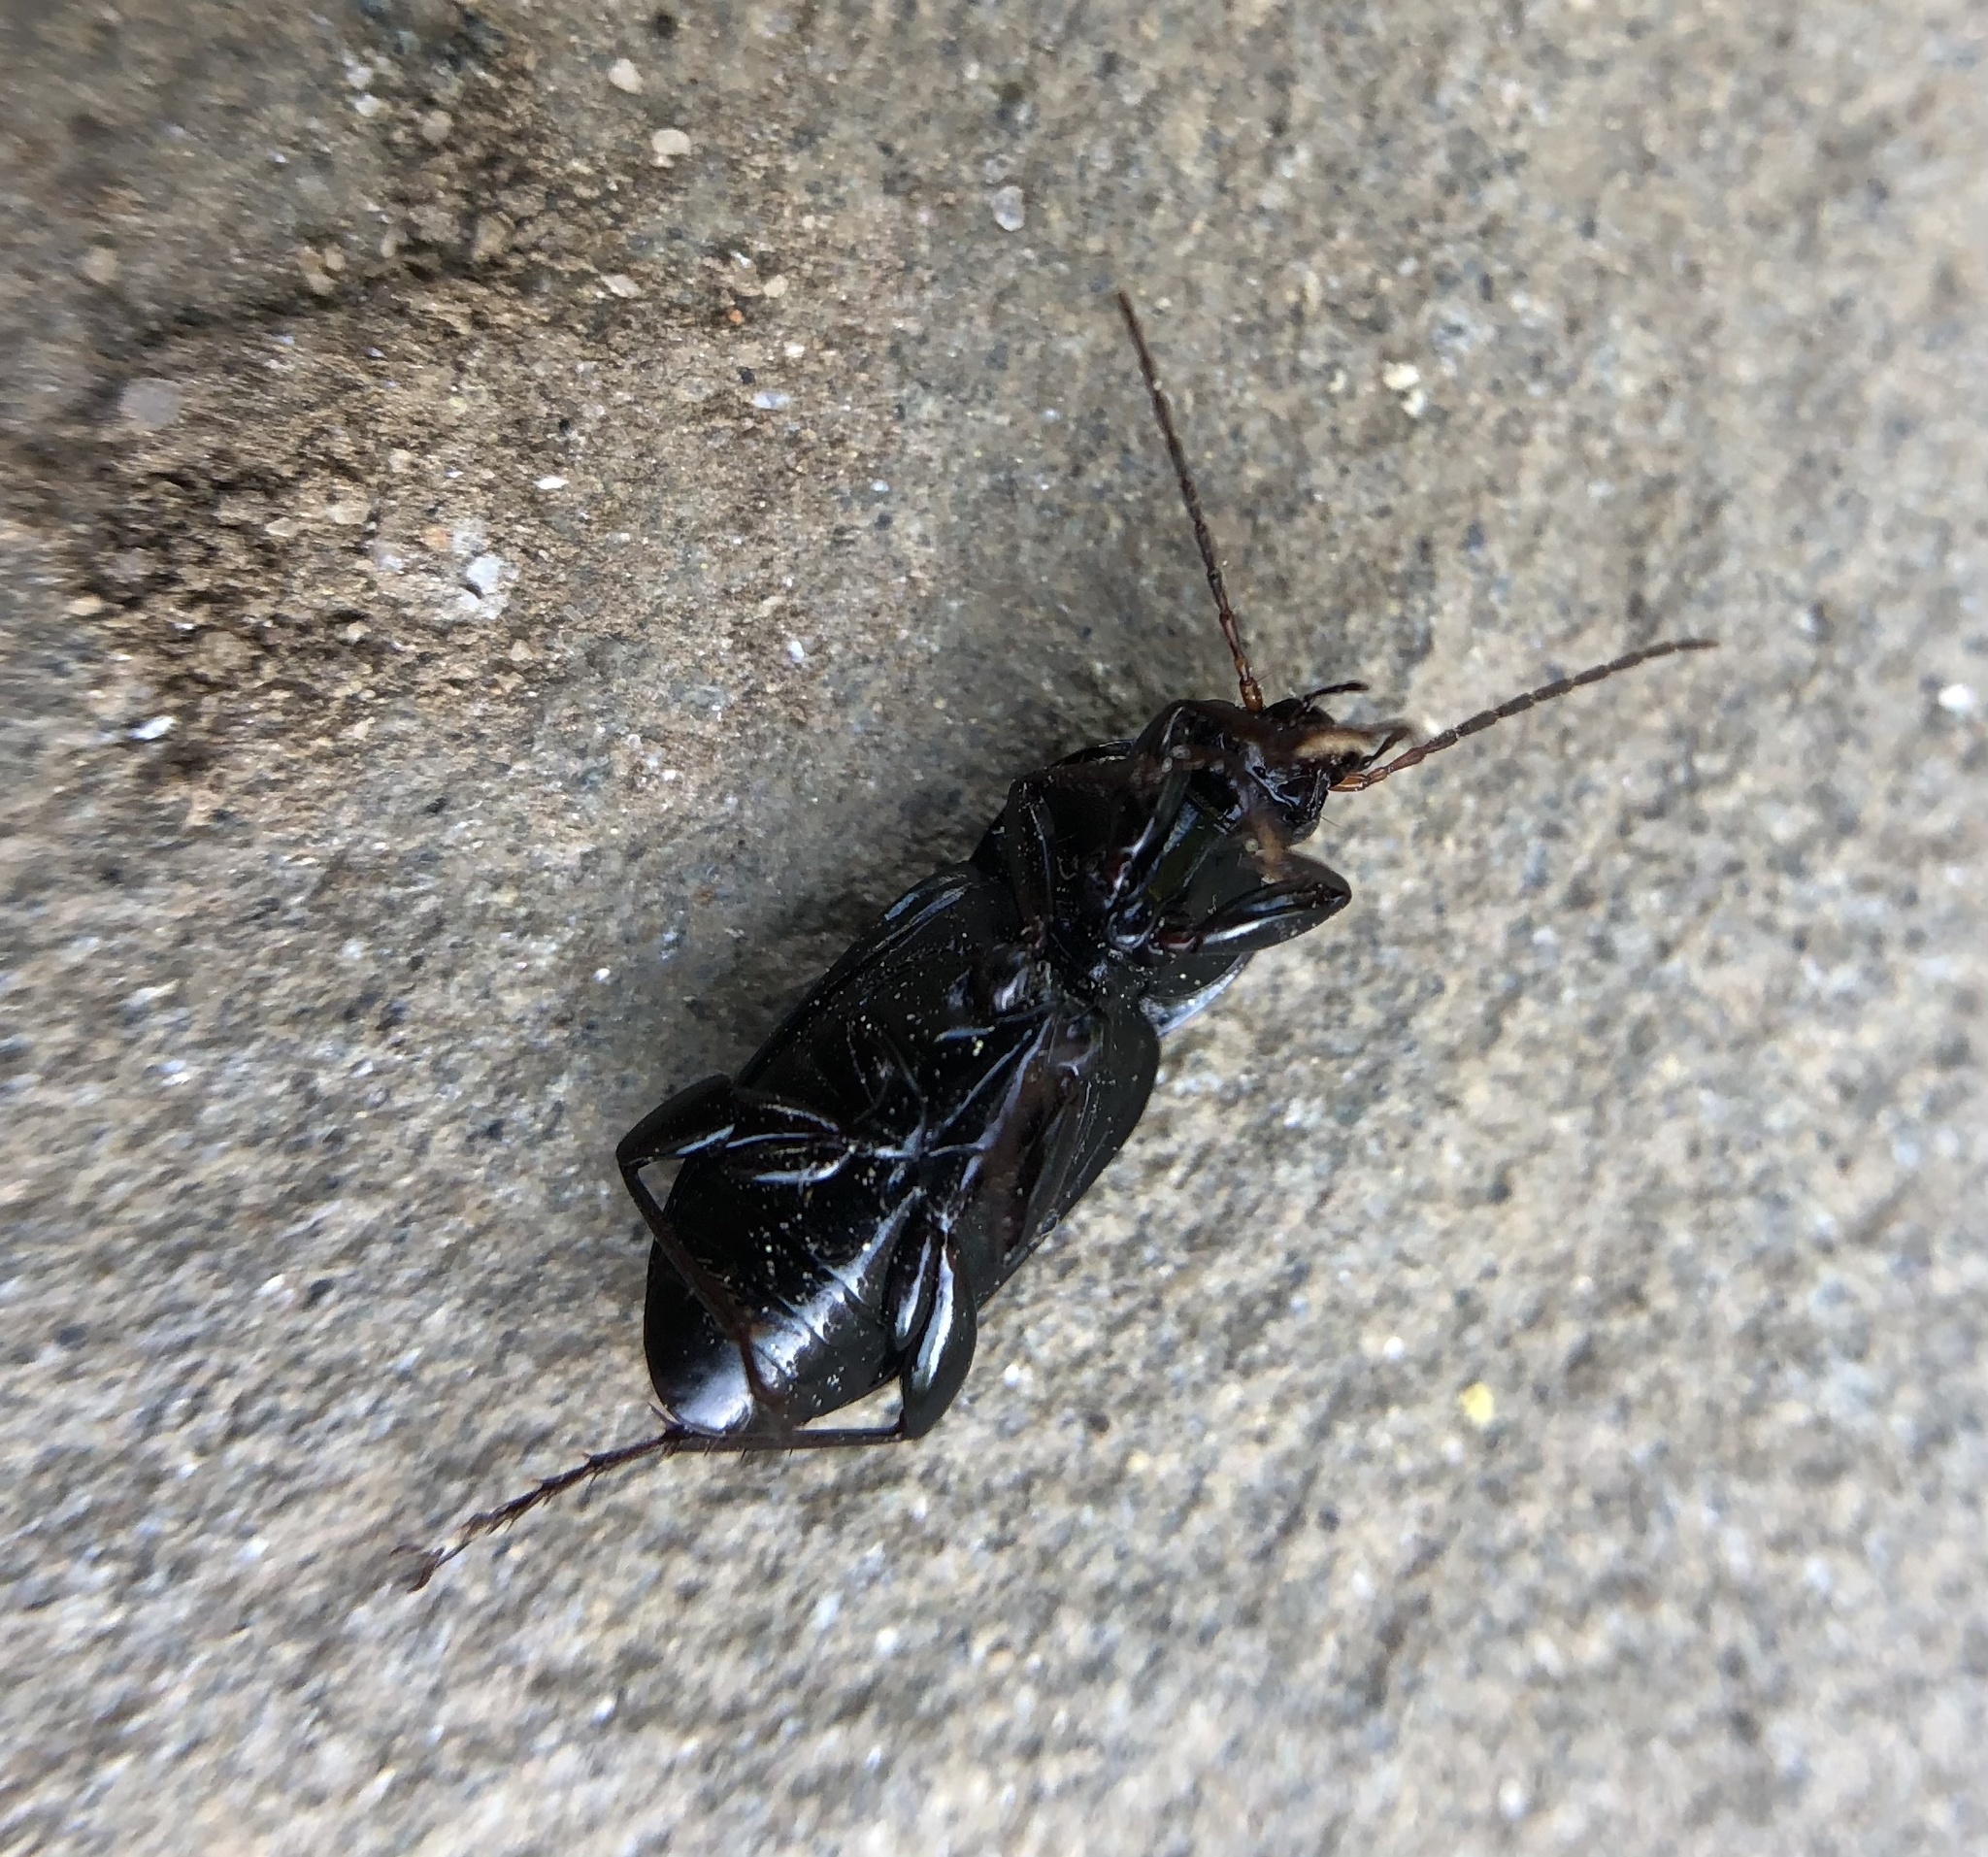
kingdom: Animalia
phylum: Arthropoda
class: Insecta
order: Coleoptera
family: Carabidae
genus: Poecilus
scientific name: Poecilus chalcites
